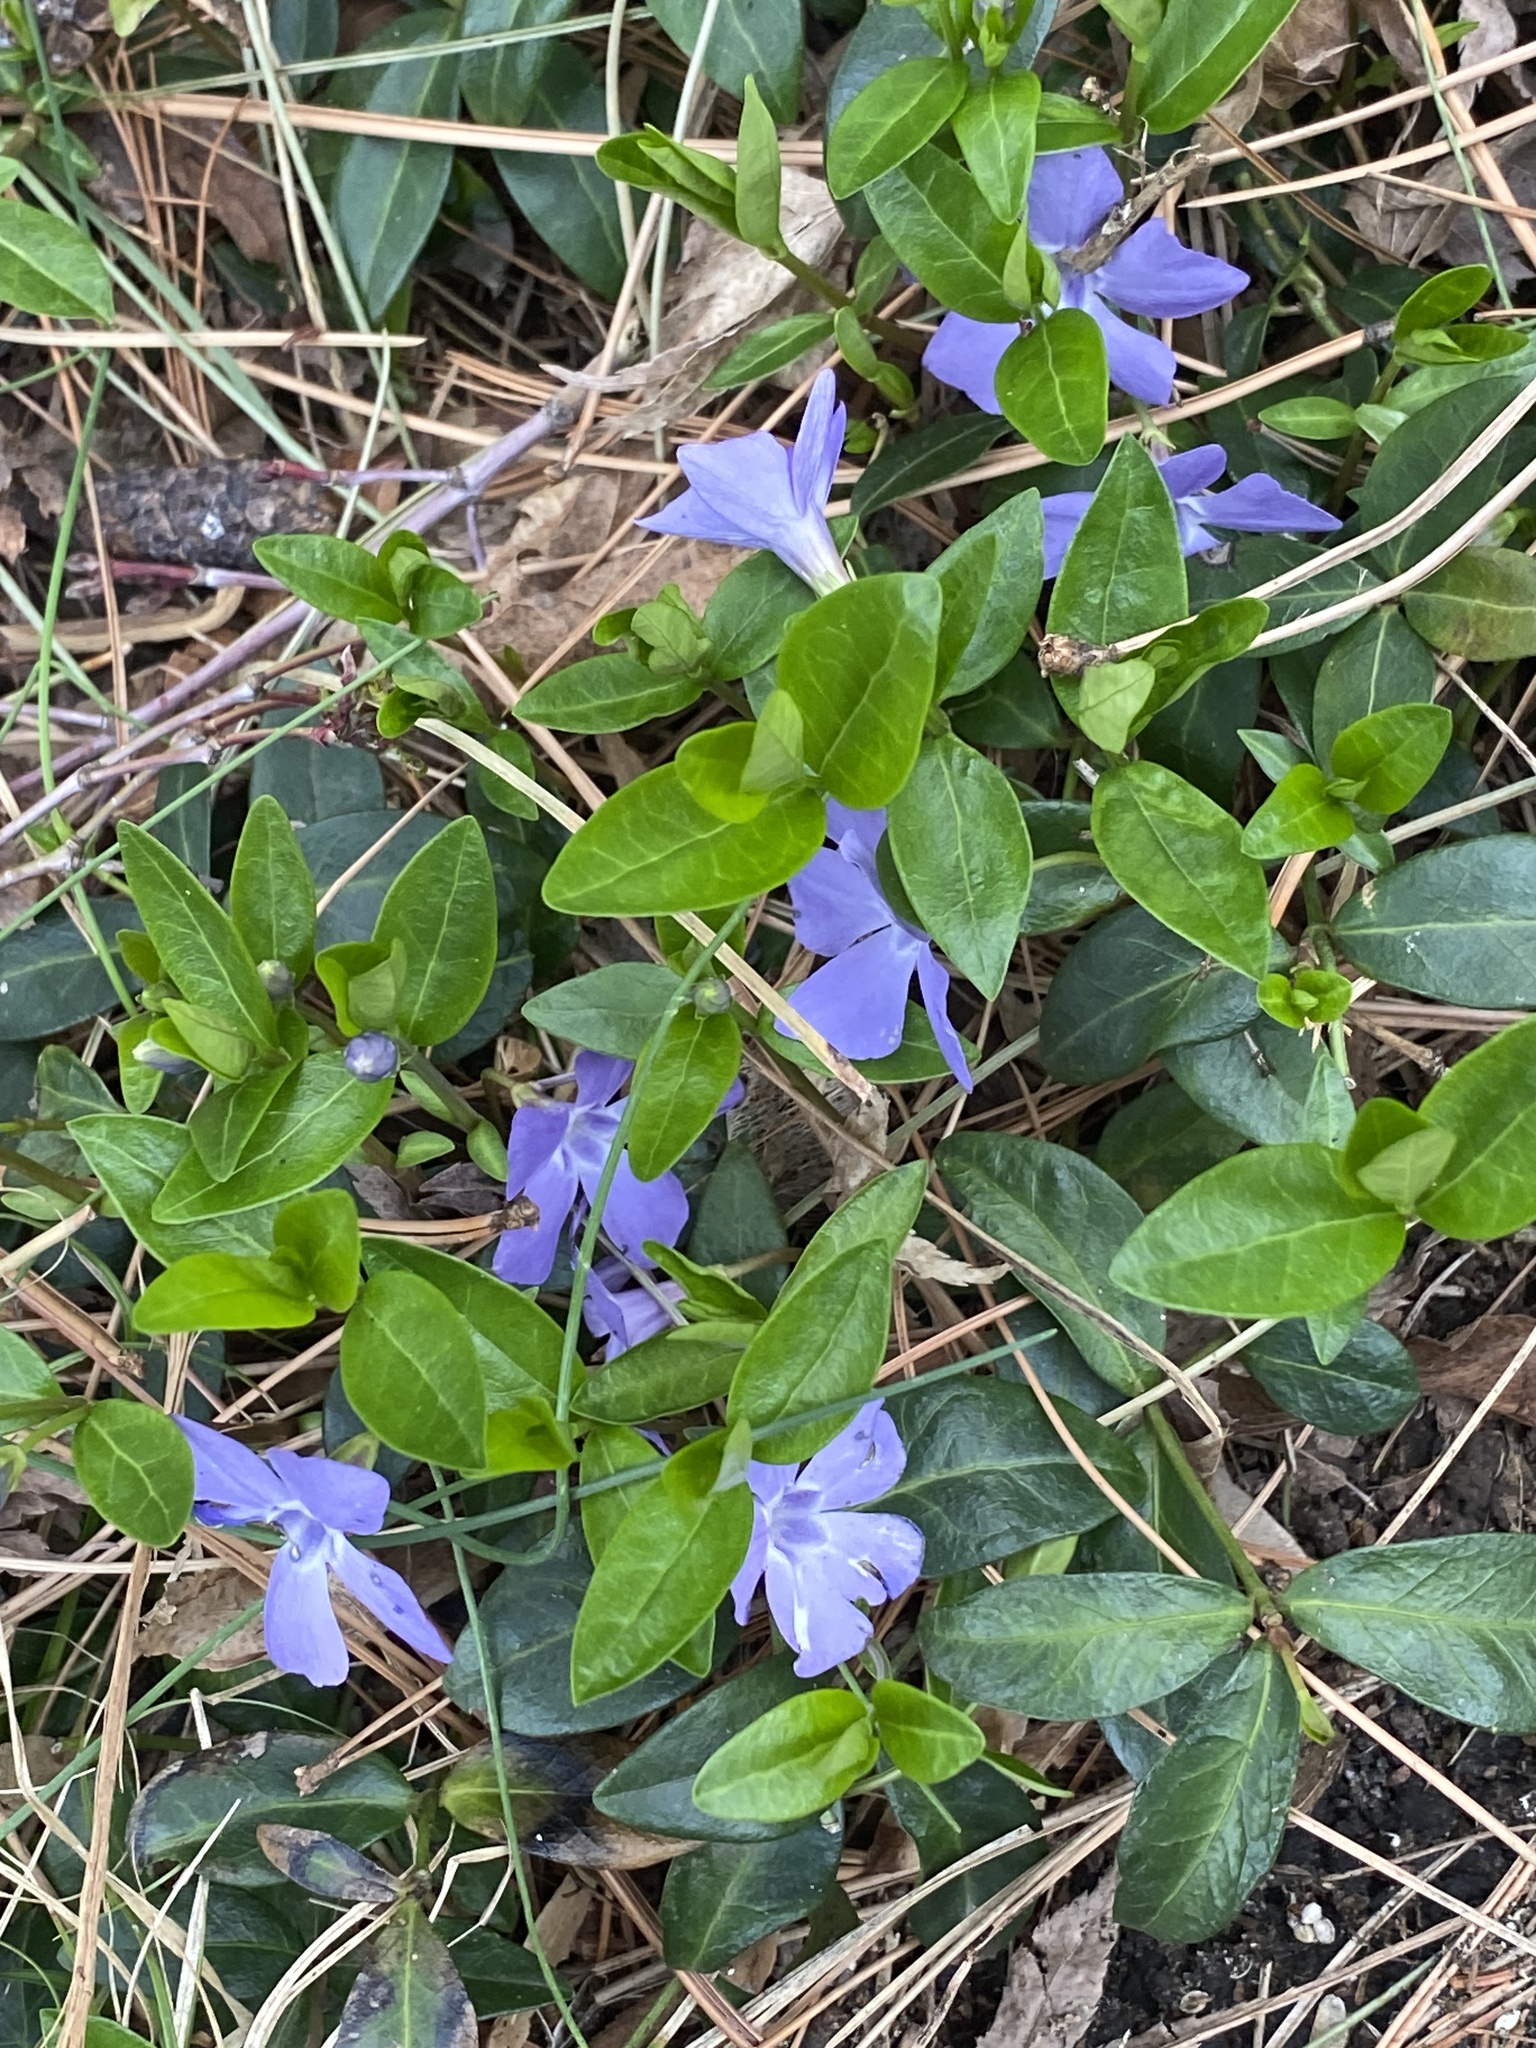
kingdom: Plantae
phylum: Tracheophyta
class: Magnoliopsida
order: Gentianales
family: Apocynaceae
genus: Vinca
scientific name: Vinca minor
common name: Lesser periwinkle
